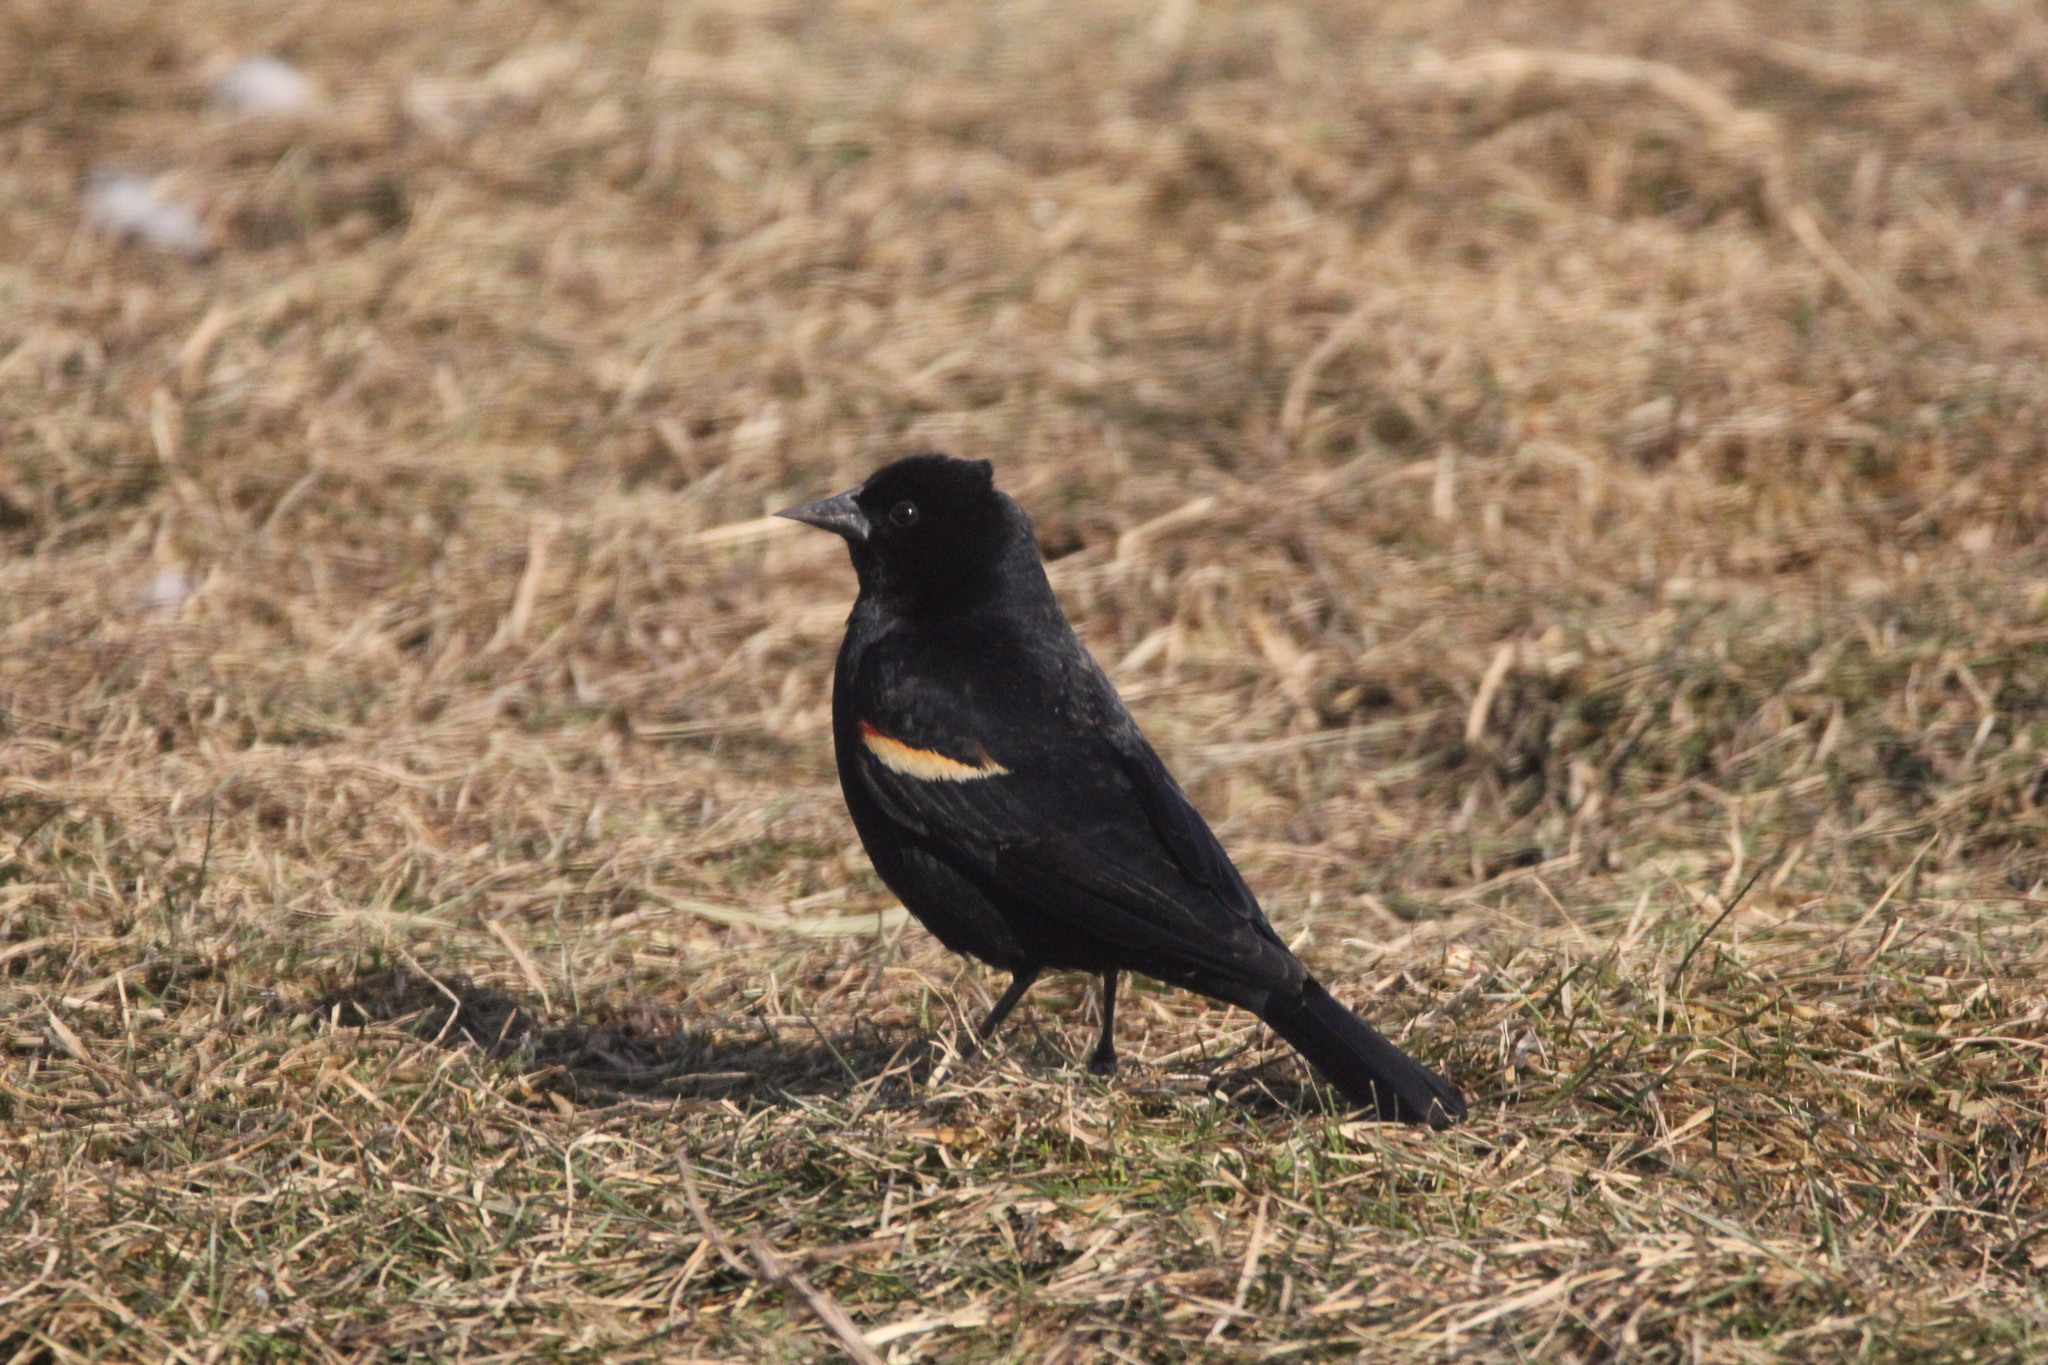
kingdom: Animalia
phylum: Chordata
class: Aves
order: Passeriformes
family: Icteridae
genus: Agelaius
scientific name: Agelaius phoeniceus
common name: Red-winged blackbird
